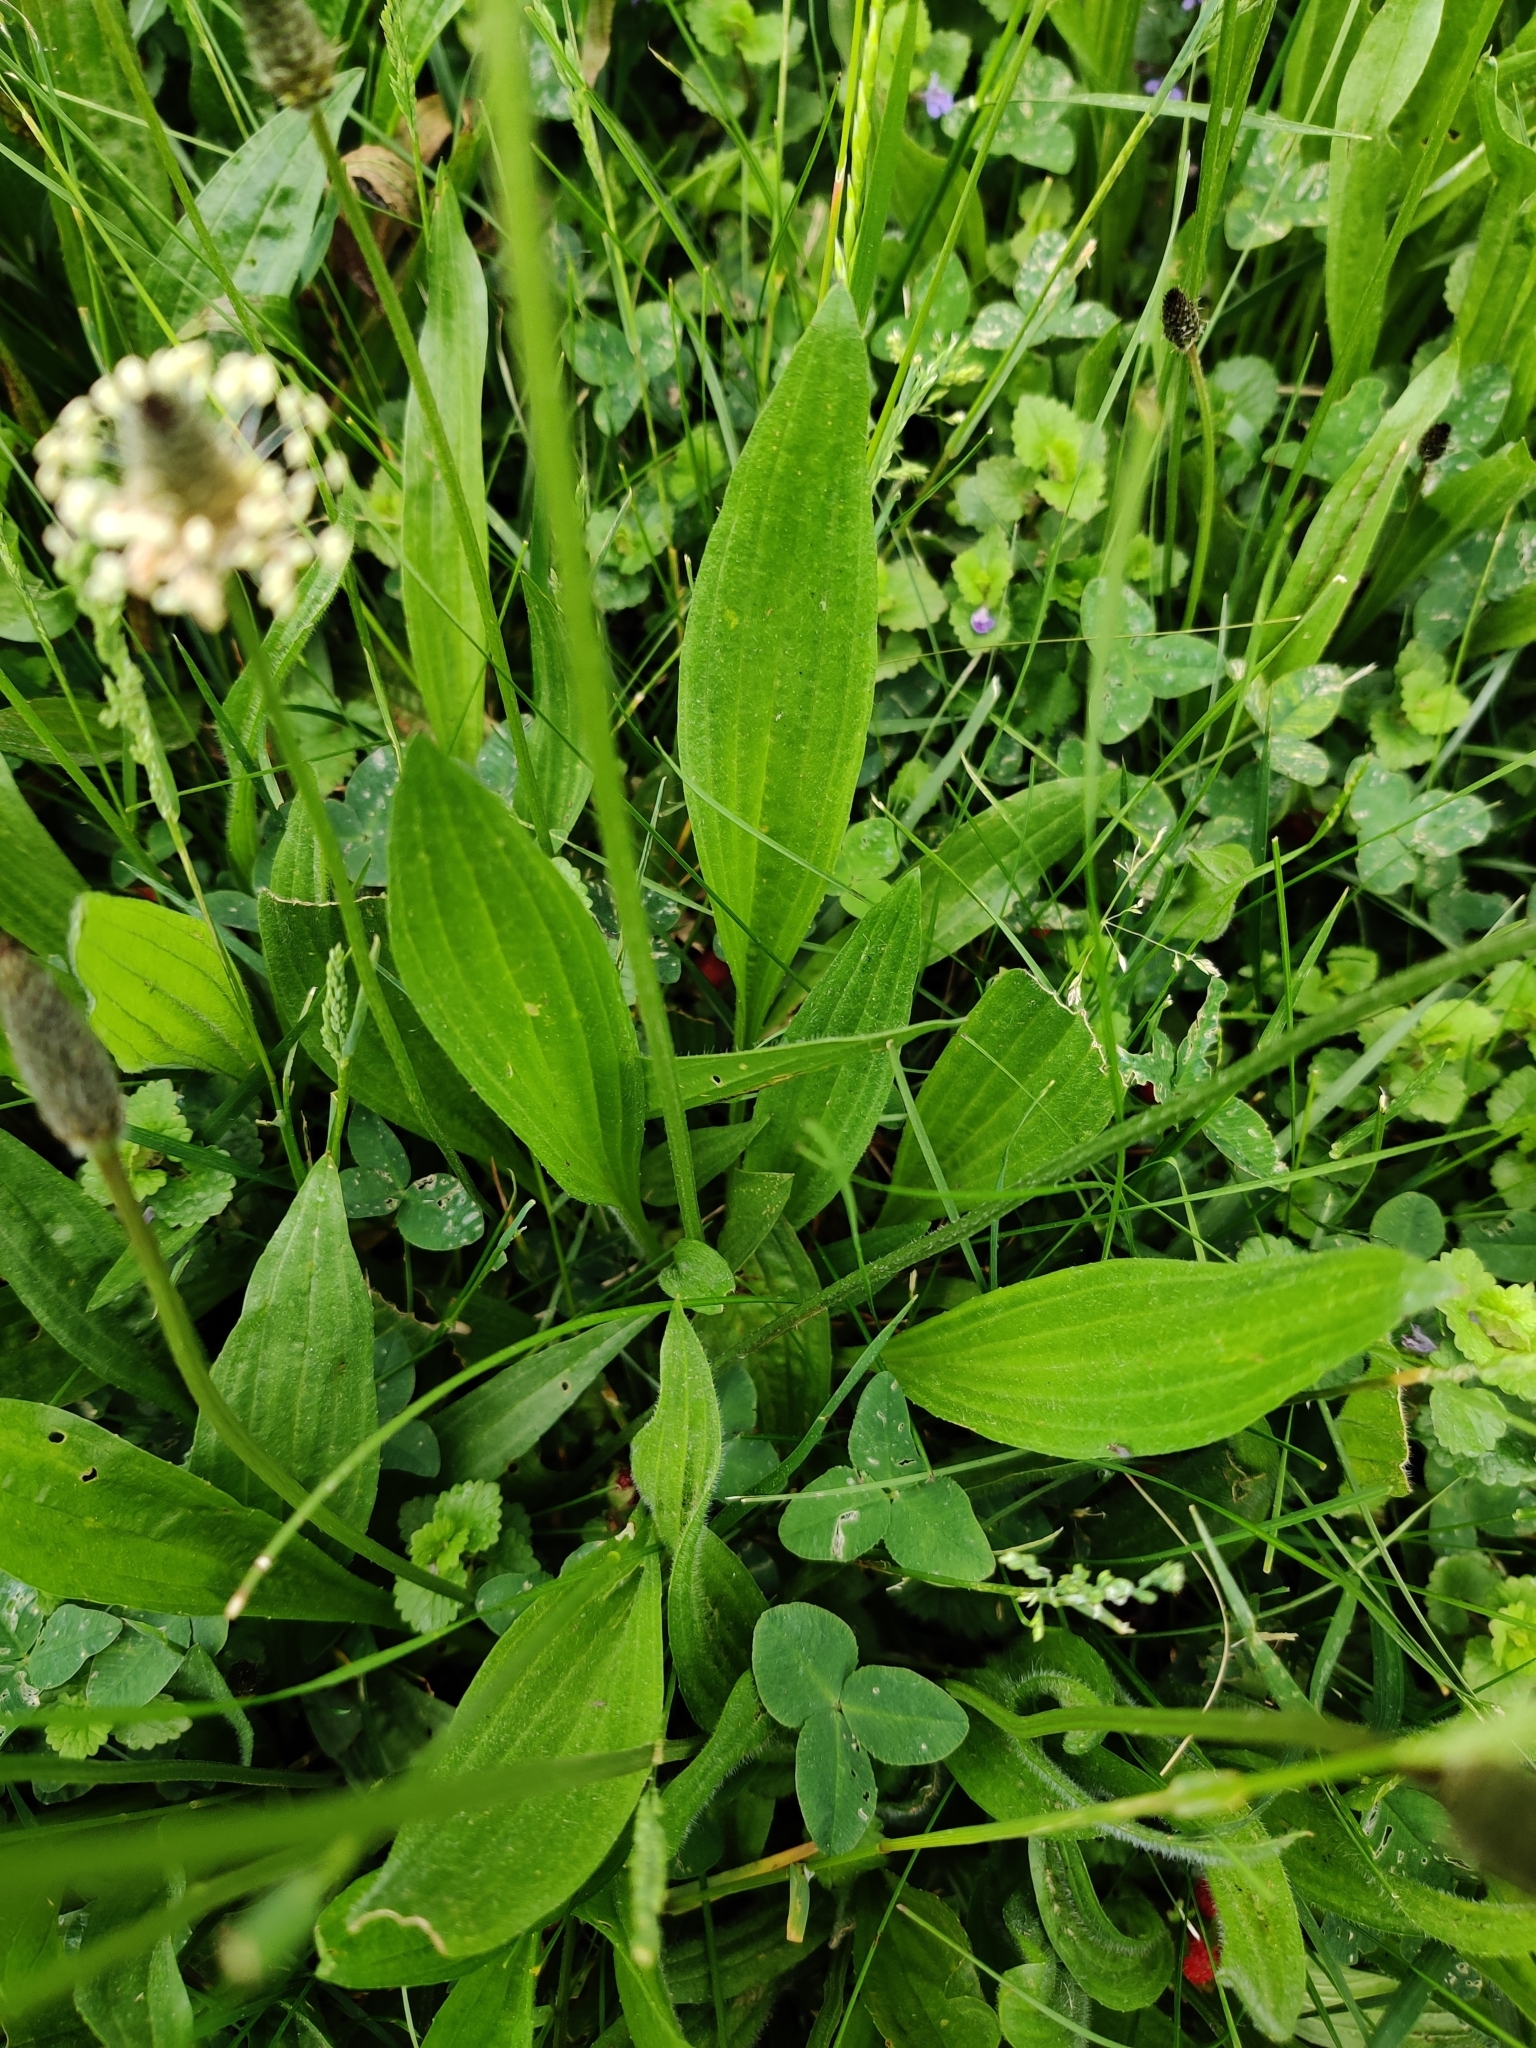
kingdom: Plantae
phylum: Tracheophyta
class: Magnoliopsida
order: Lamiales
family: Plantaginaceae
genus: Plantago
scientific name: Plantago lanceolata
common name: Ribwort plantain
